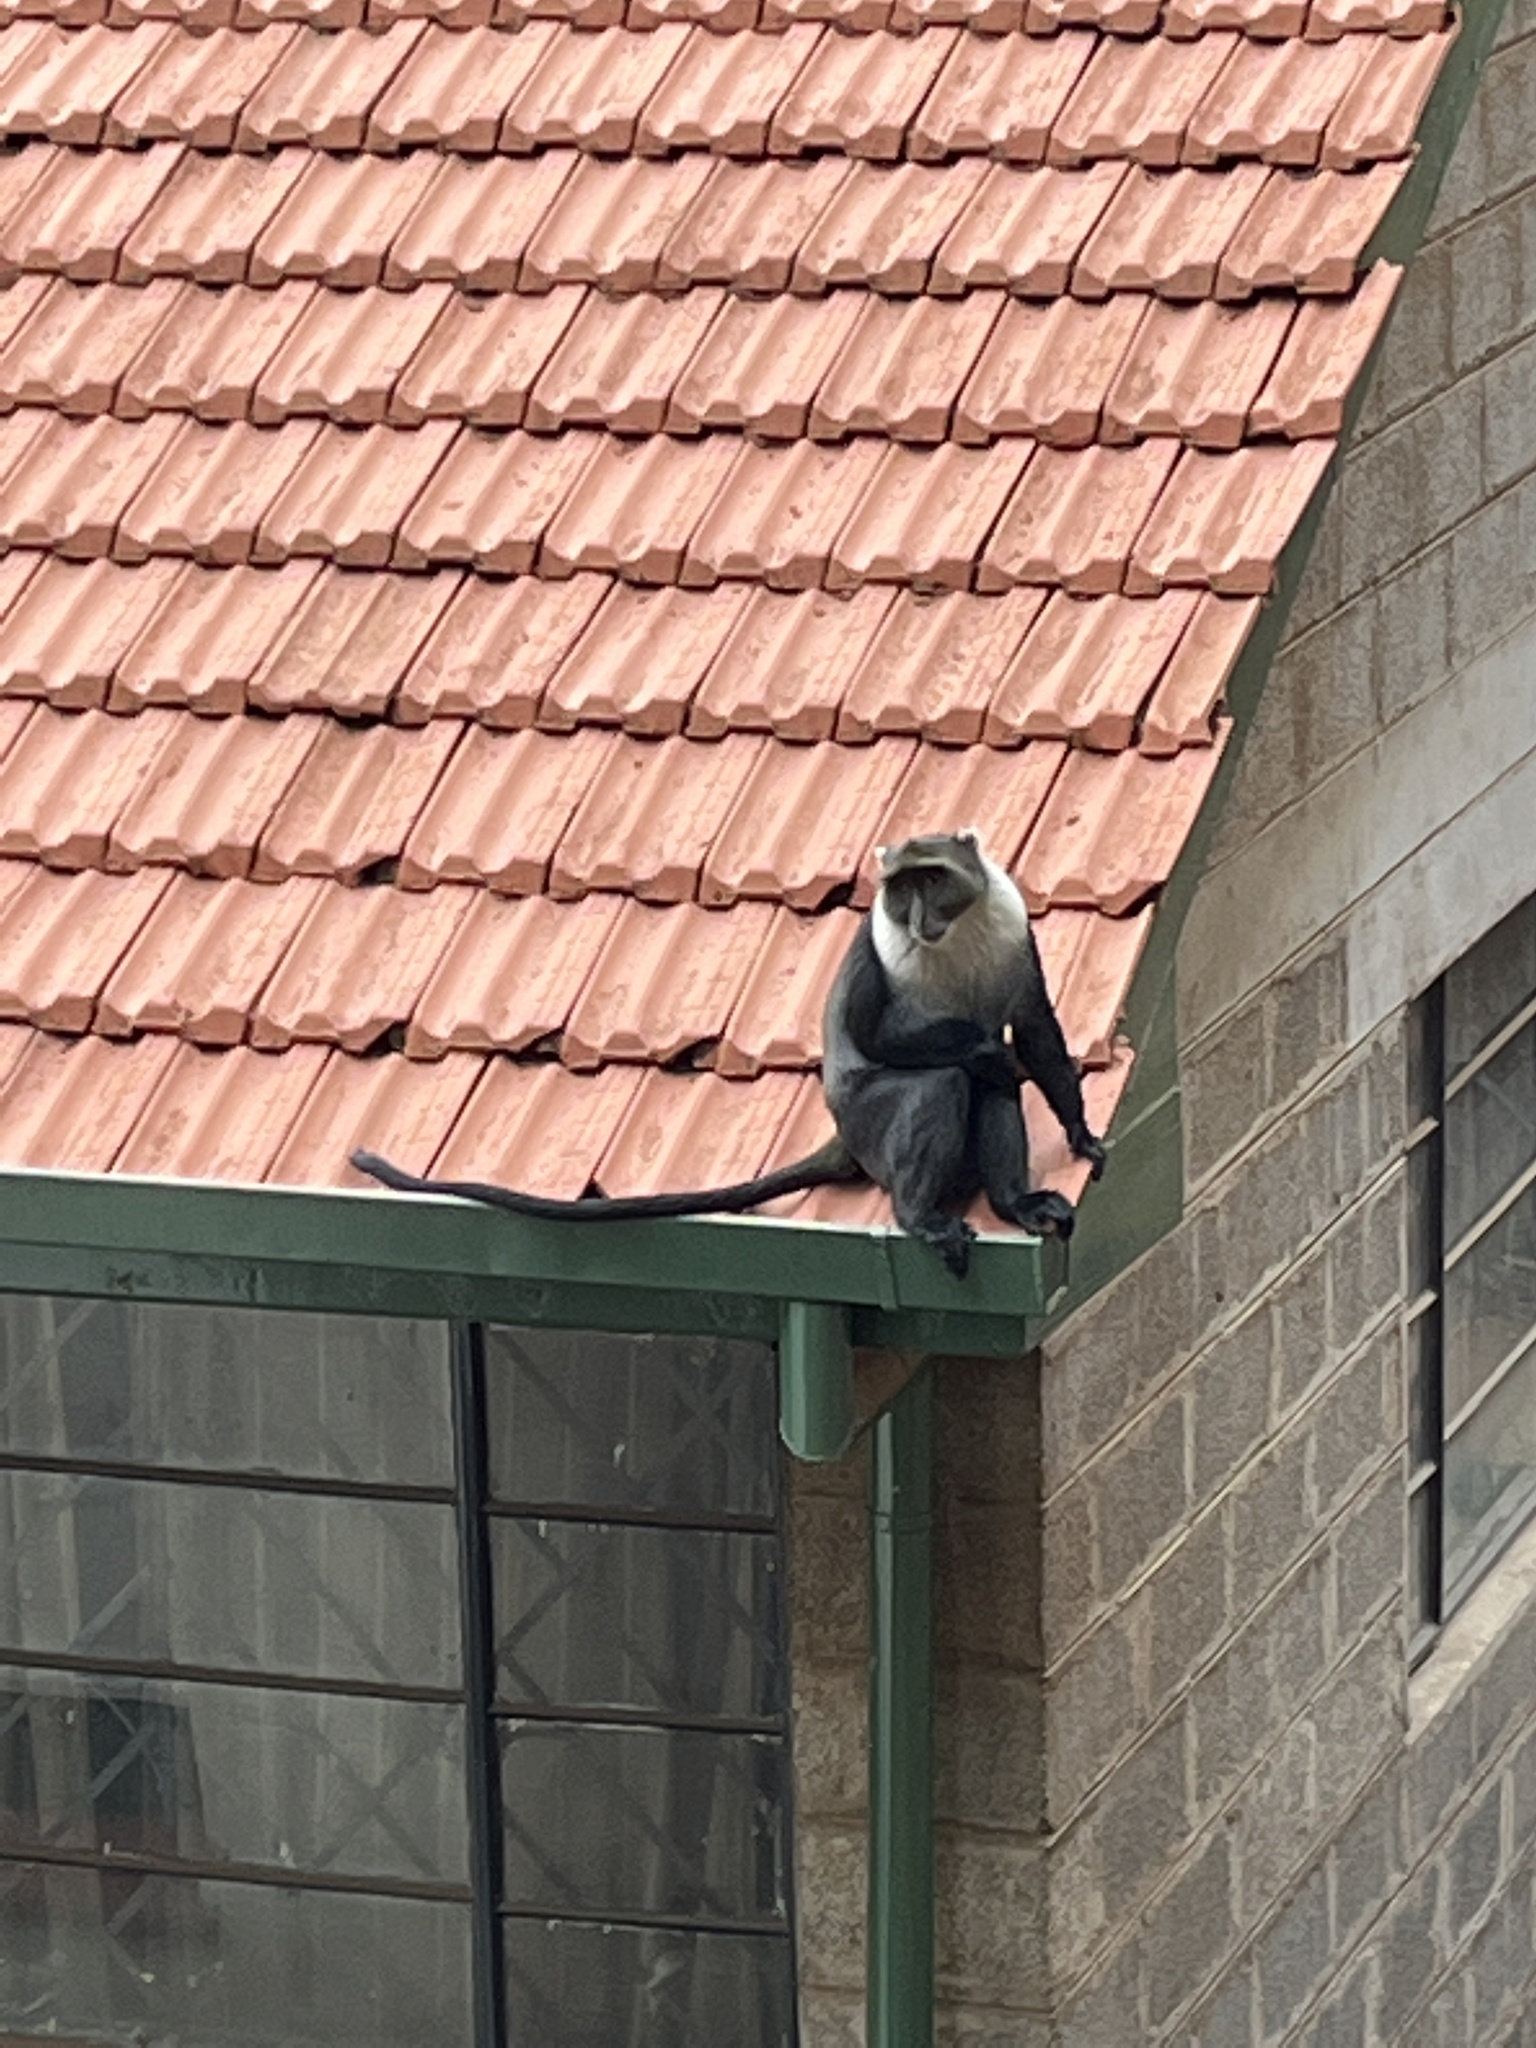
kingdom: Animalia
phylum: Chordata
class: Mammalia
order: Primates
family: Cercopithecidae
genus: Cercopithecus
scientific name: Cercopithecus mitis
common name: Blue monkey
